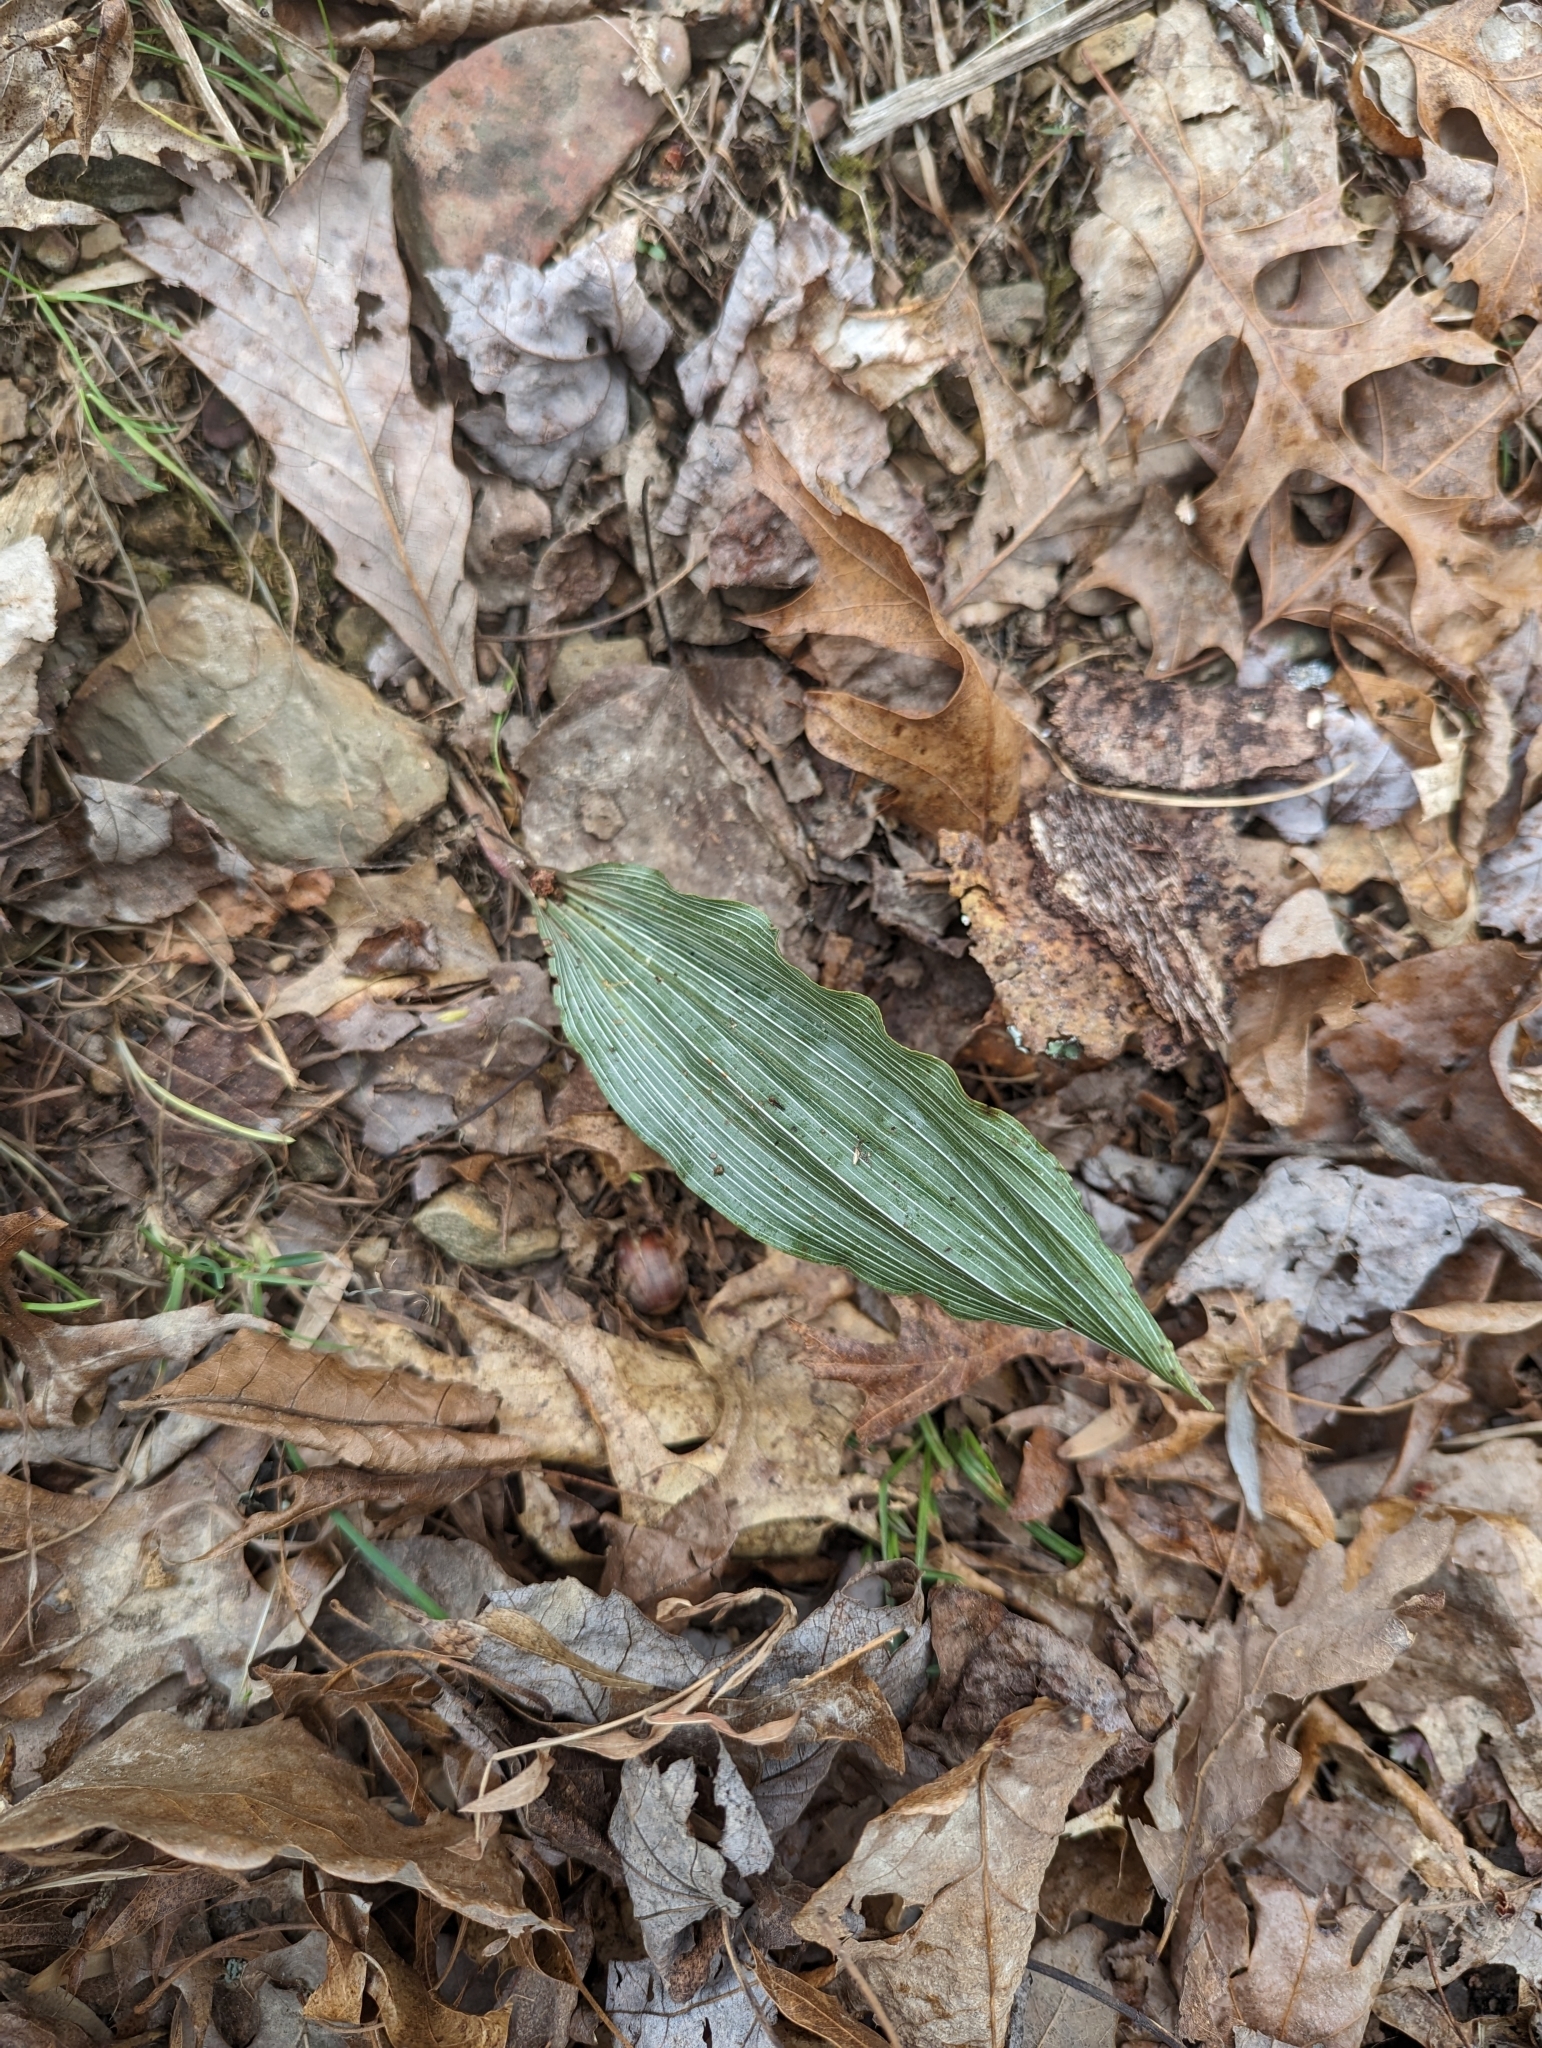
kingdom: Plantae
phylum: Tracheophyta
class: Liliopsida
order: Asparagales
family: Orchidaceae
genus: Aplectrum
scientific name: Aplectrum hyemale
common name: Adam-and-eve
